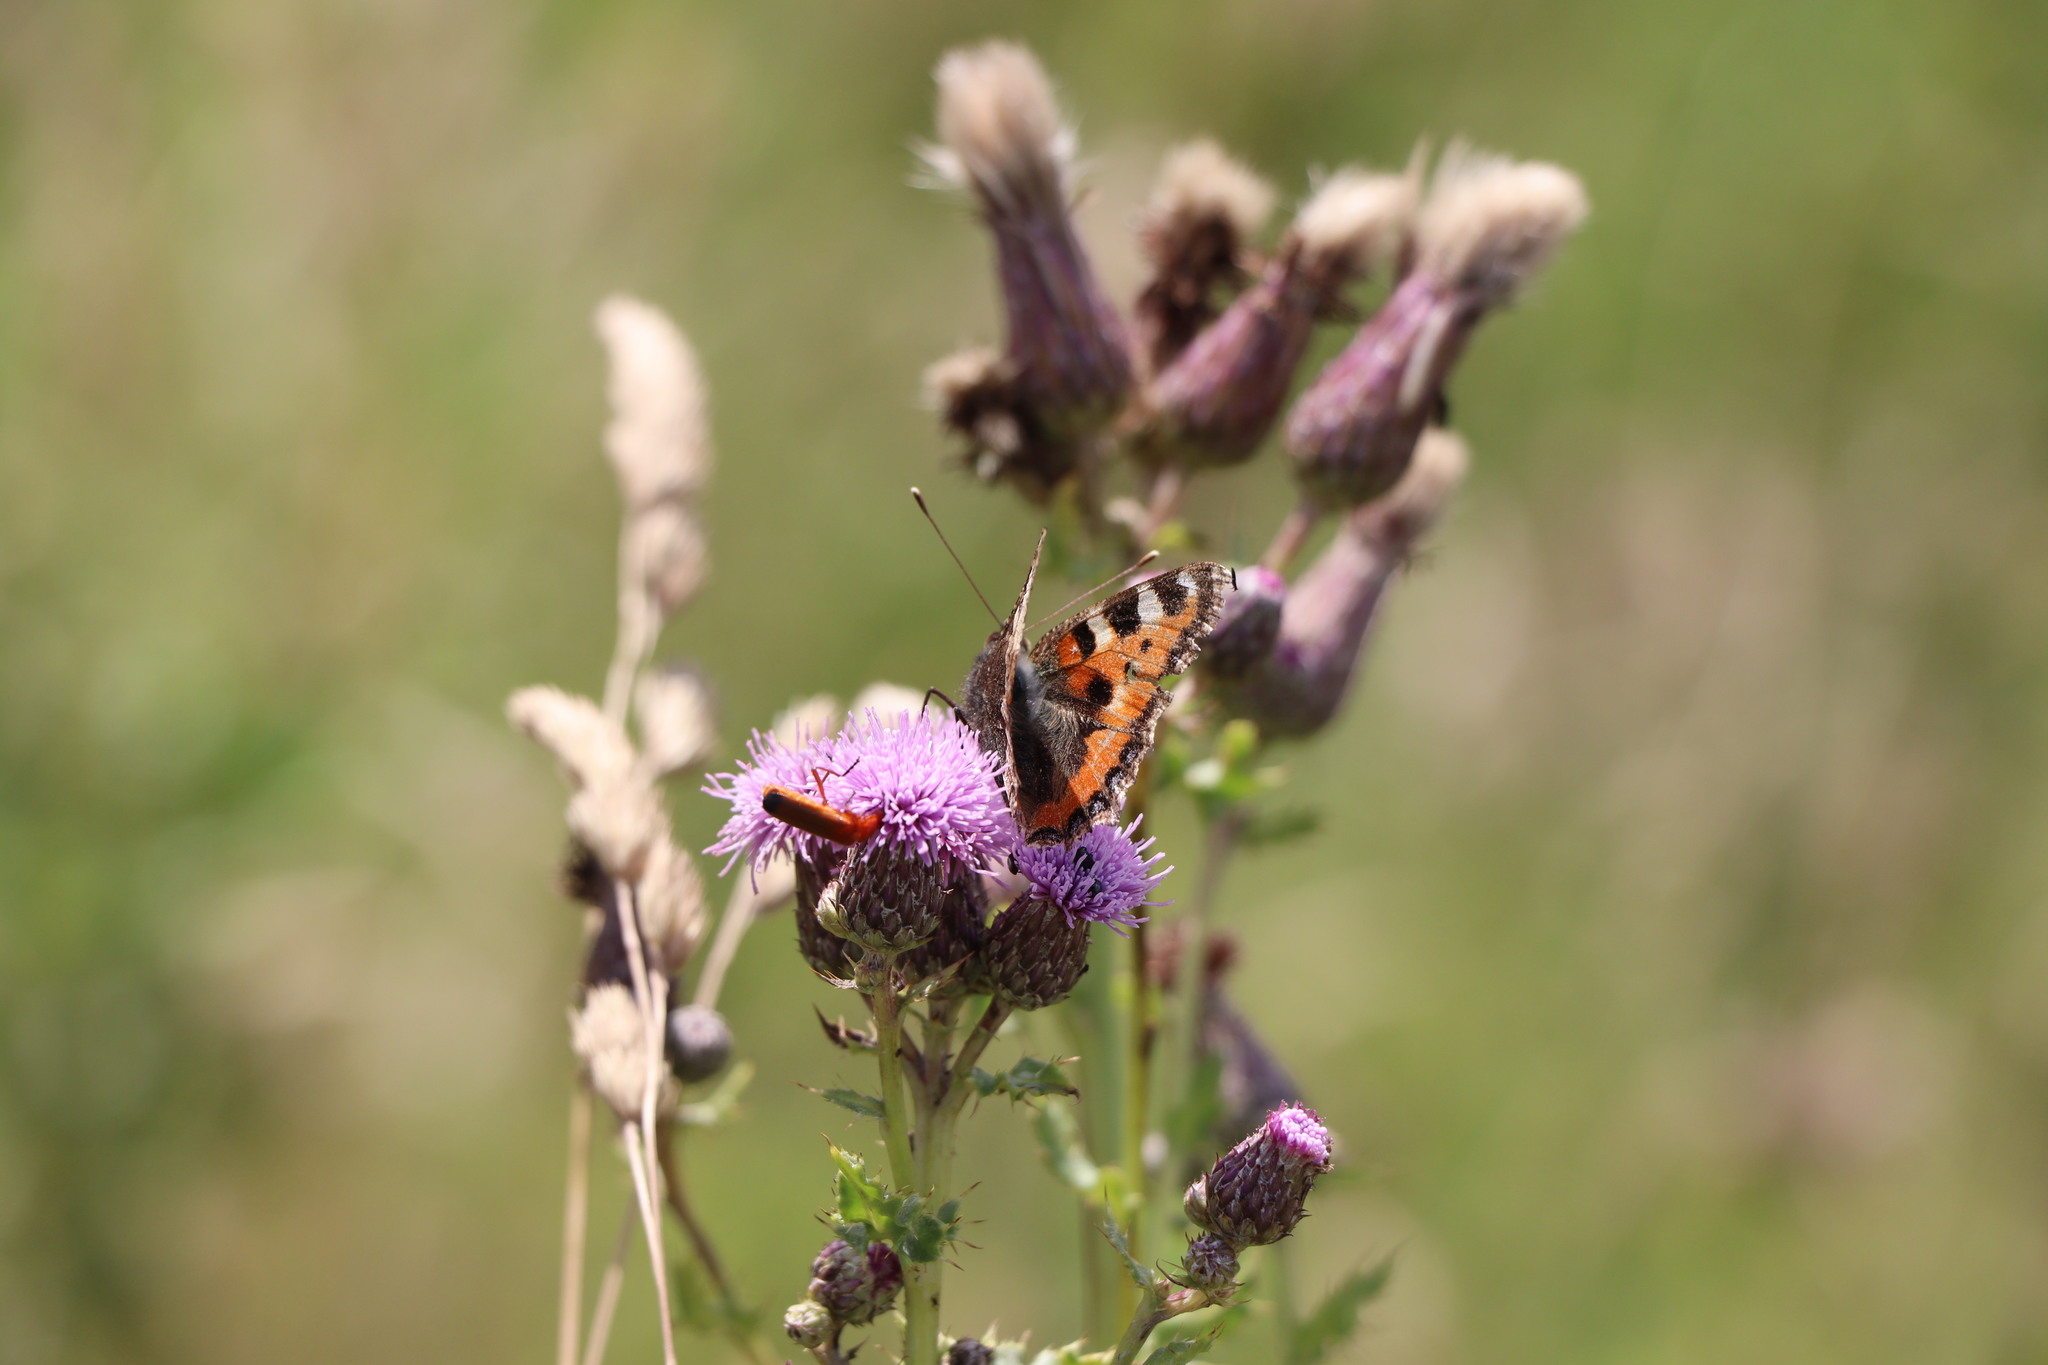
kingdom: Animalia
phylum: Arthropoda
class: Insecta
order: Lepidoptera
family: Nymphalidae
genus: Aglais
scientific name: Aglais urticae
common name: Small tortoiseshell
